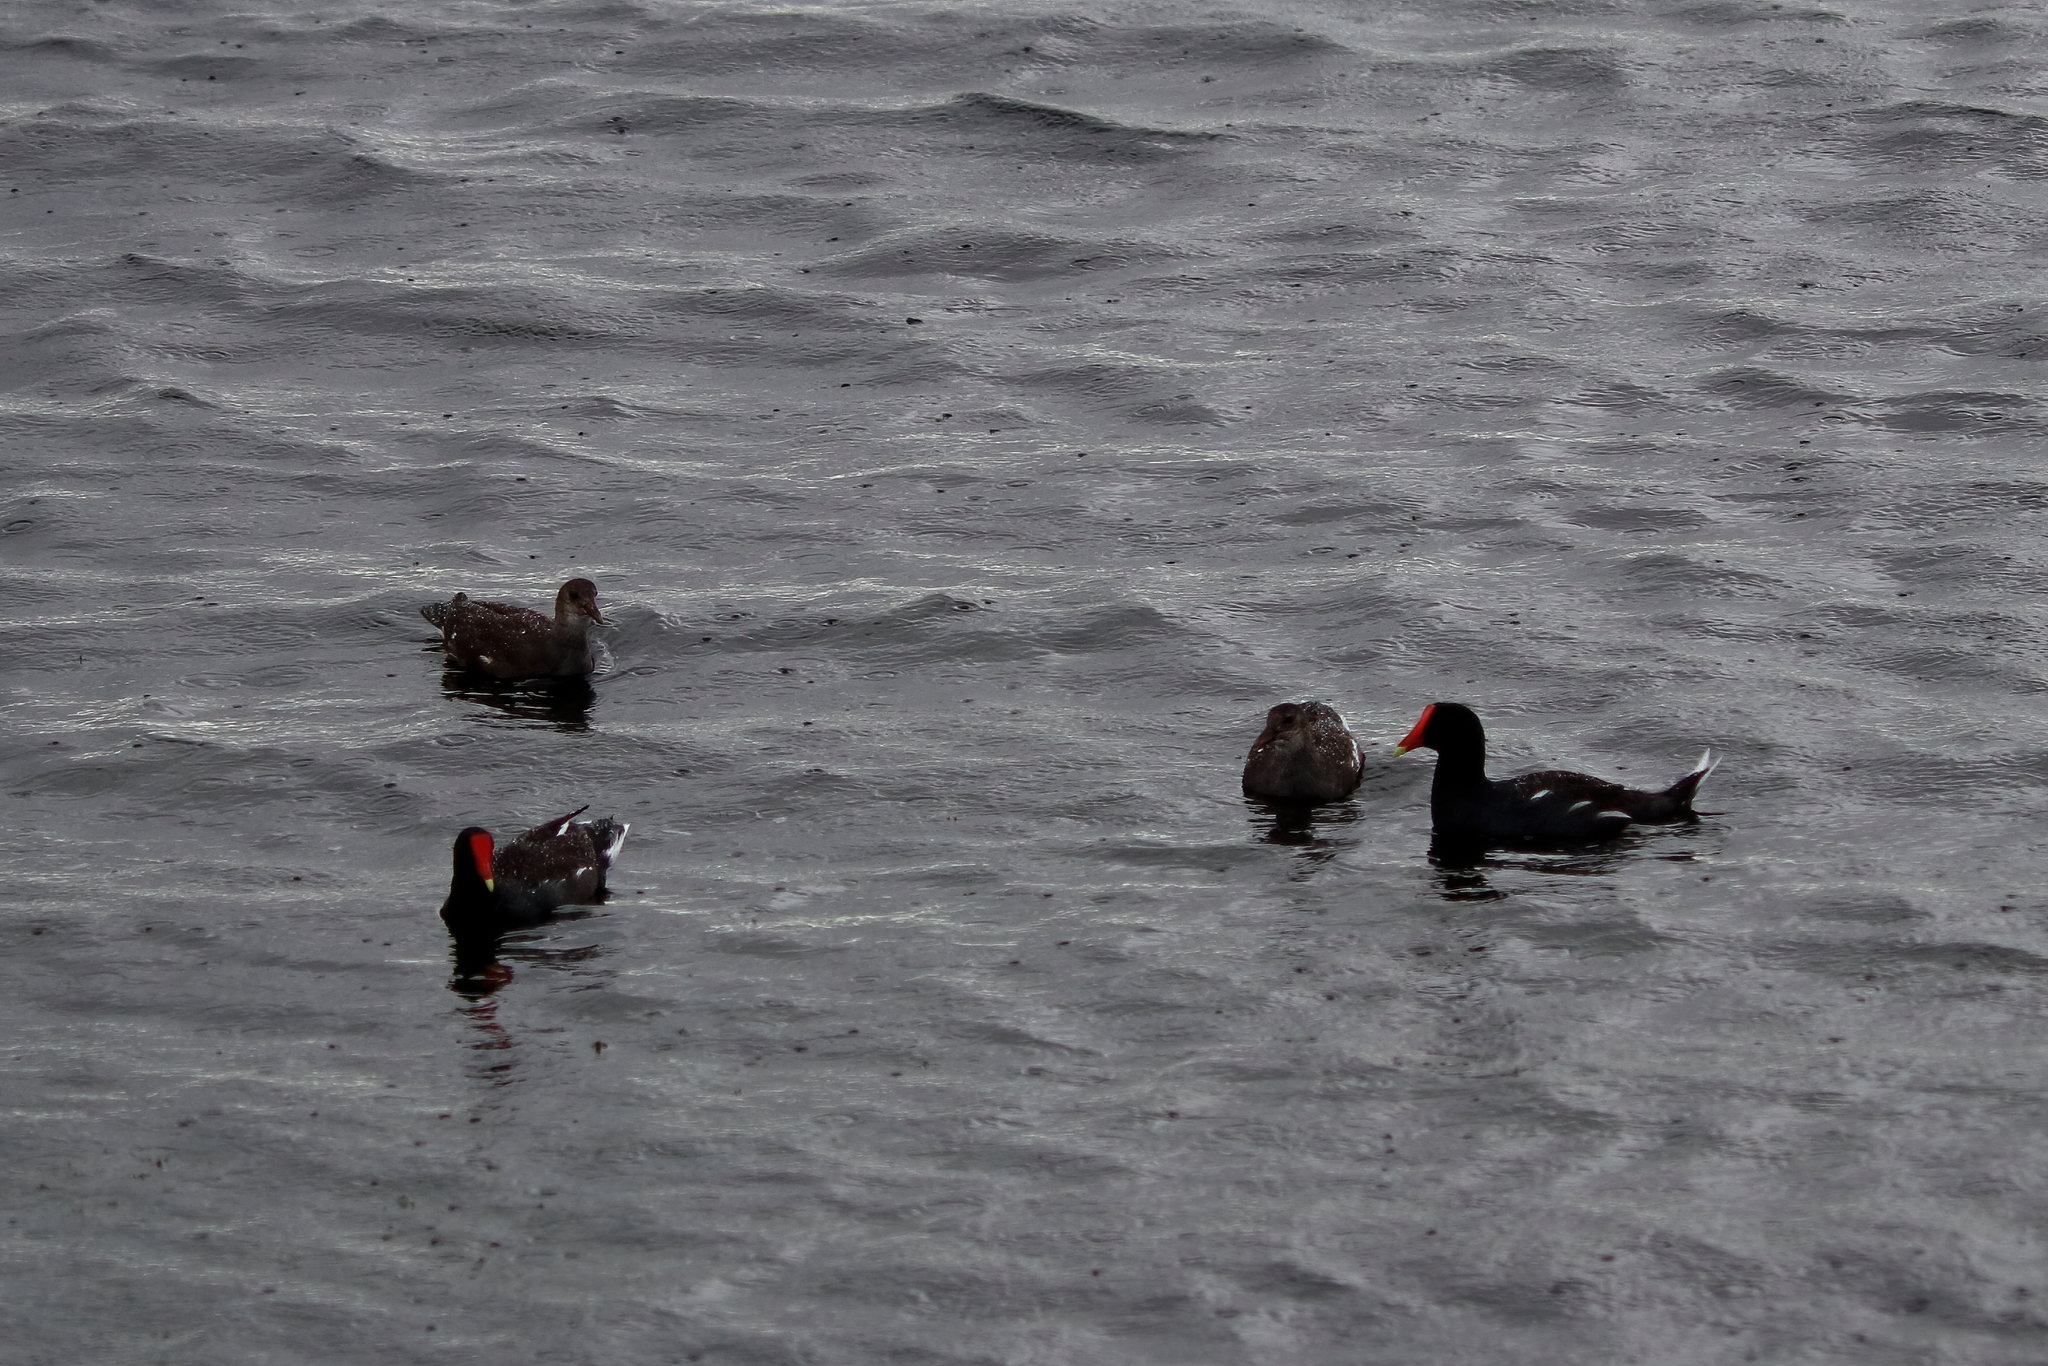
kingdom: Animalia
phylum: Chordata
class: Aves
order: Gruiformes
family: Rallidae
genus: Gallinula
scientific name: Gallinula chloropus
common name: Common moorhen
